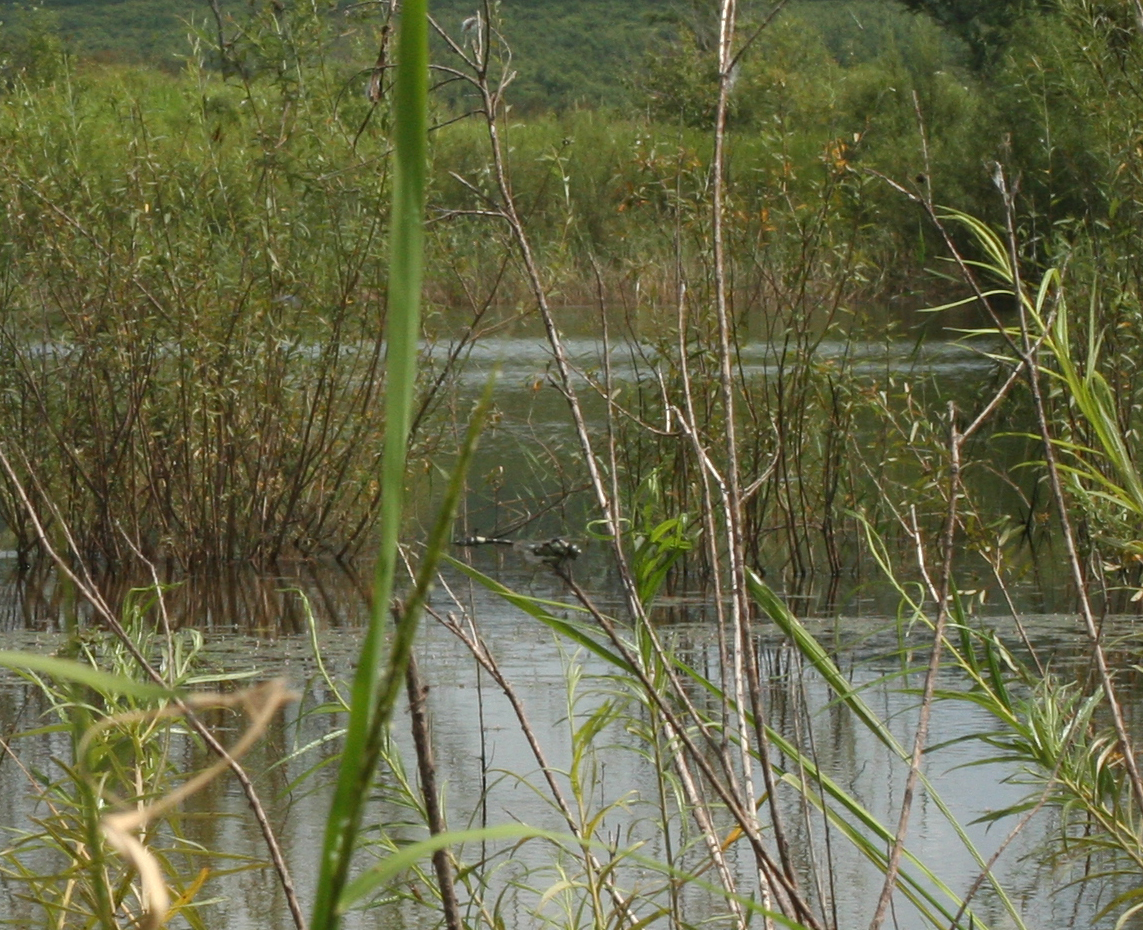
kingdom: Animalia
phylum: Arthropoda
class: Insecta
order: Odonata
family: Gomphidae
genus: Gomphidia
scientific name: Gomphidia confluens
